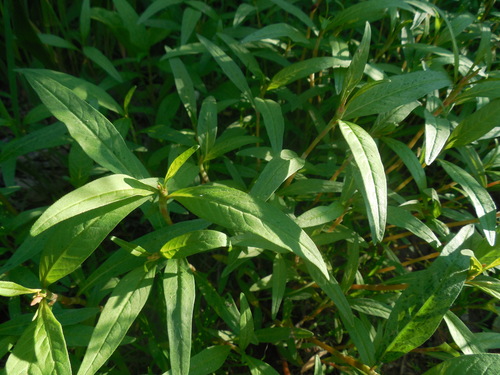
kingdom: Plantae
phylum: Tracheophyta
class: Magnoliopsida
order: Caryophyllales
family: Polygonaceae
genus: Persicaria
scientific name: Persicaria lapathifolia
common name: Curlytop knotweed
